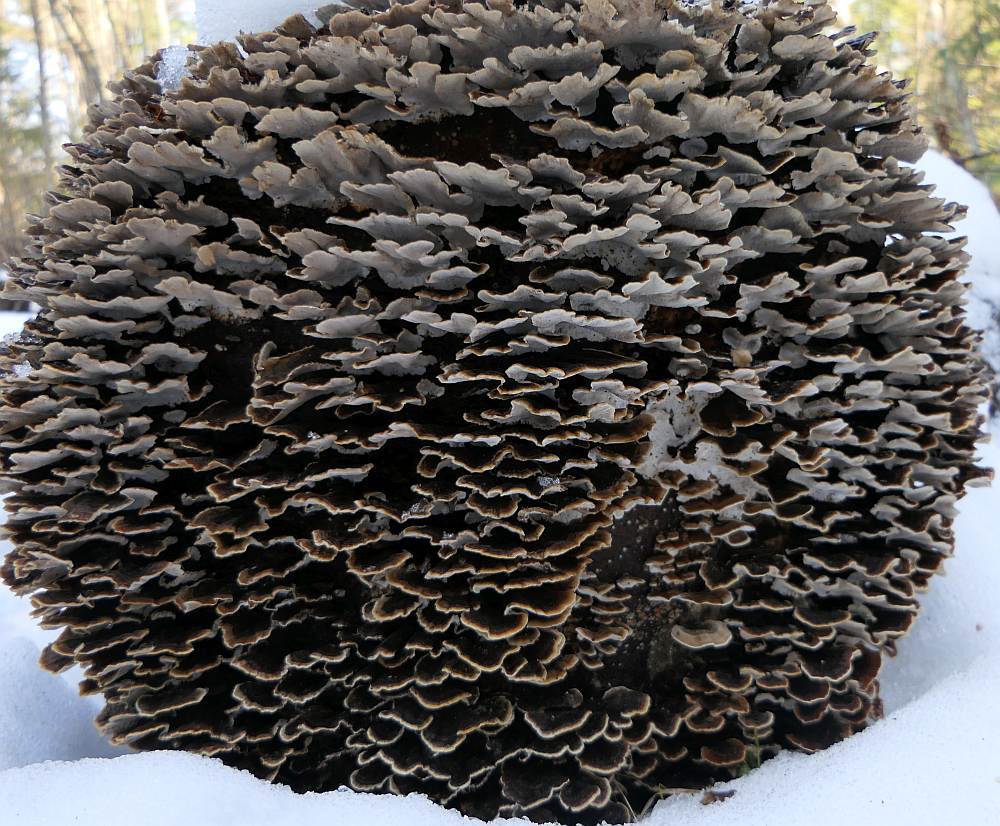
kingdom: Fungi
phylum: Basidiomycota
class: Agaricomycetes
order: Polyporales
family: Polyporaceae
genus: Trametes
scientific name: Trametes versicolor
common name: Turkeytail
